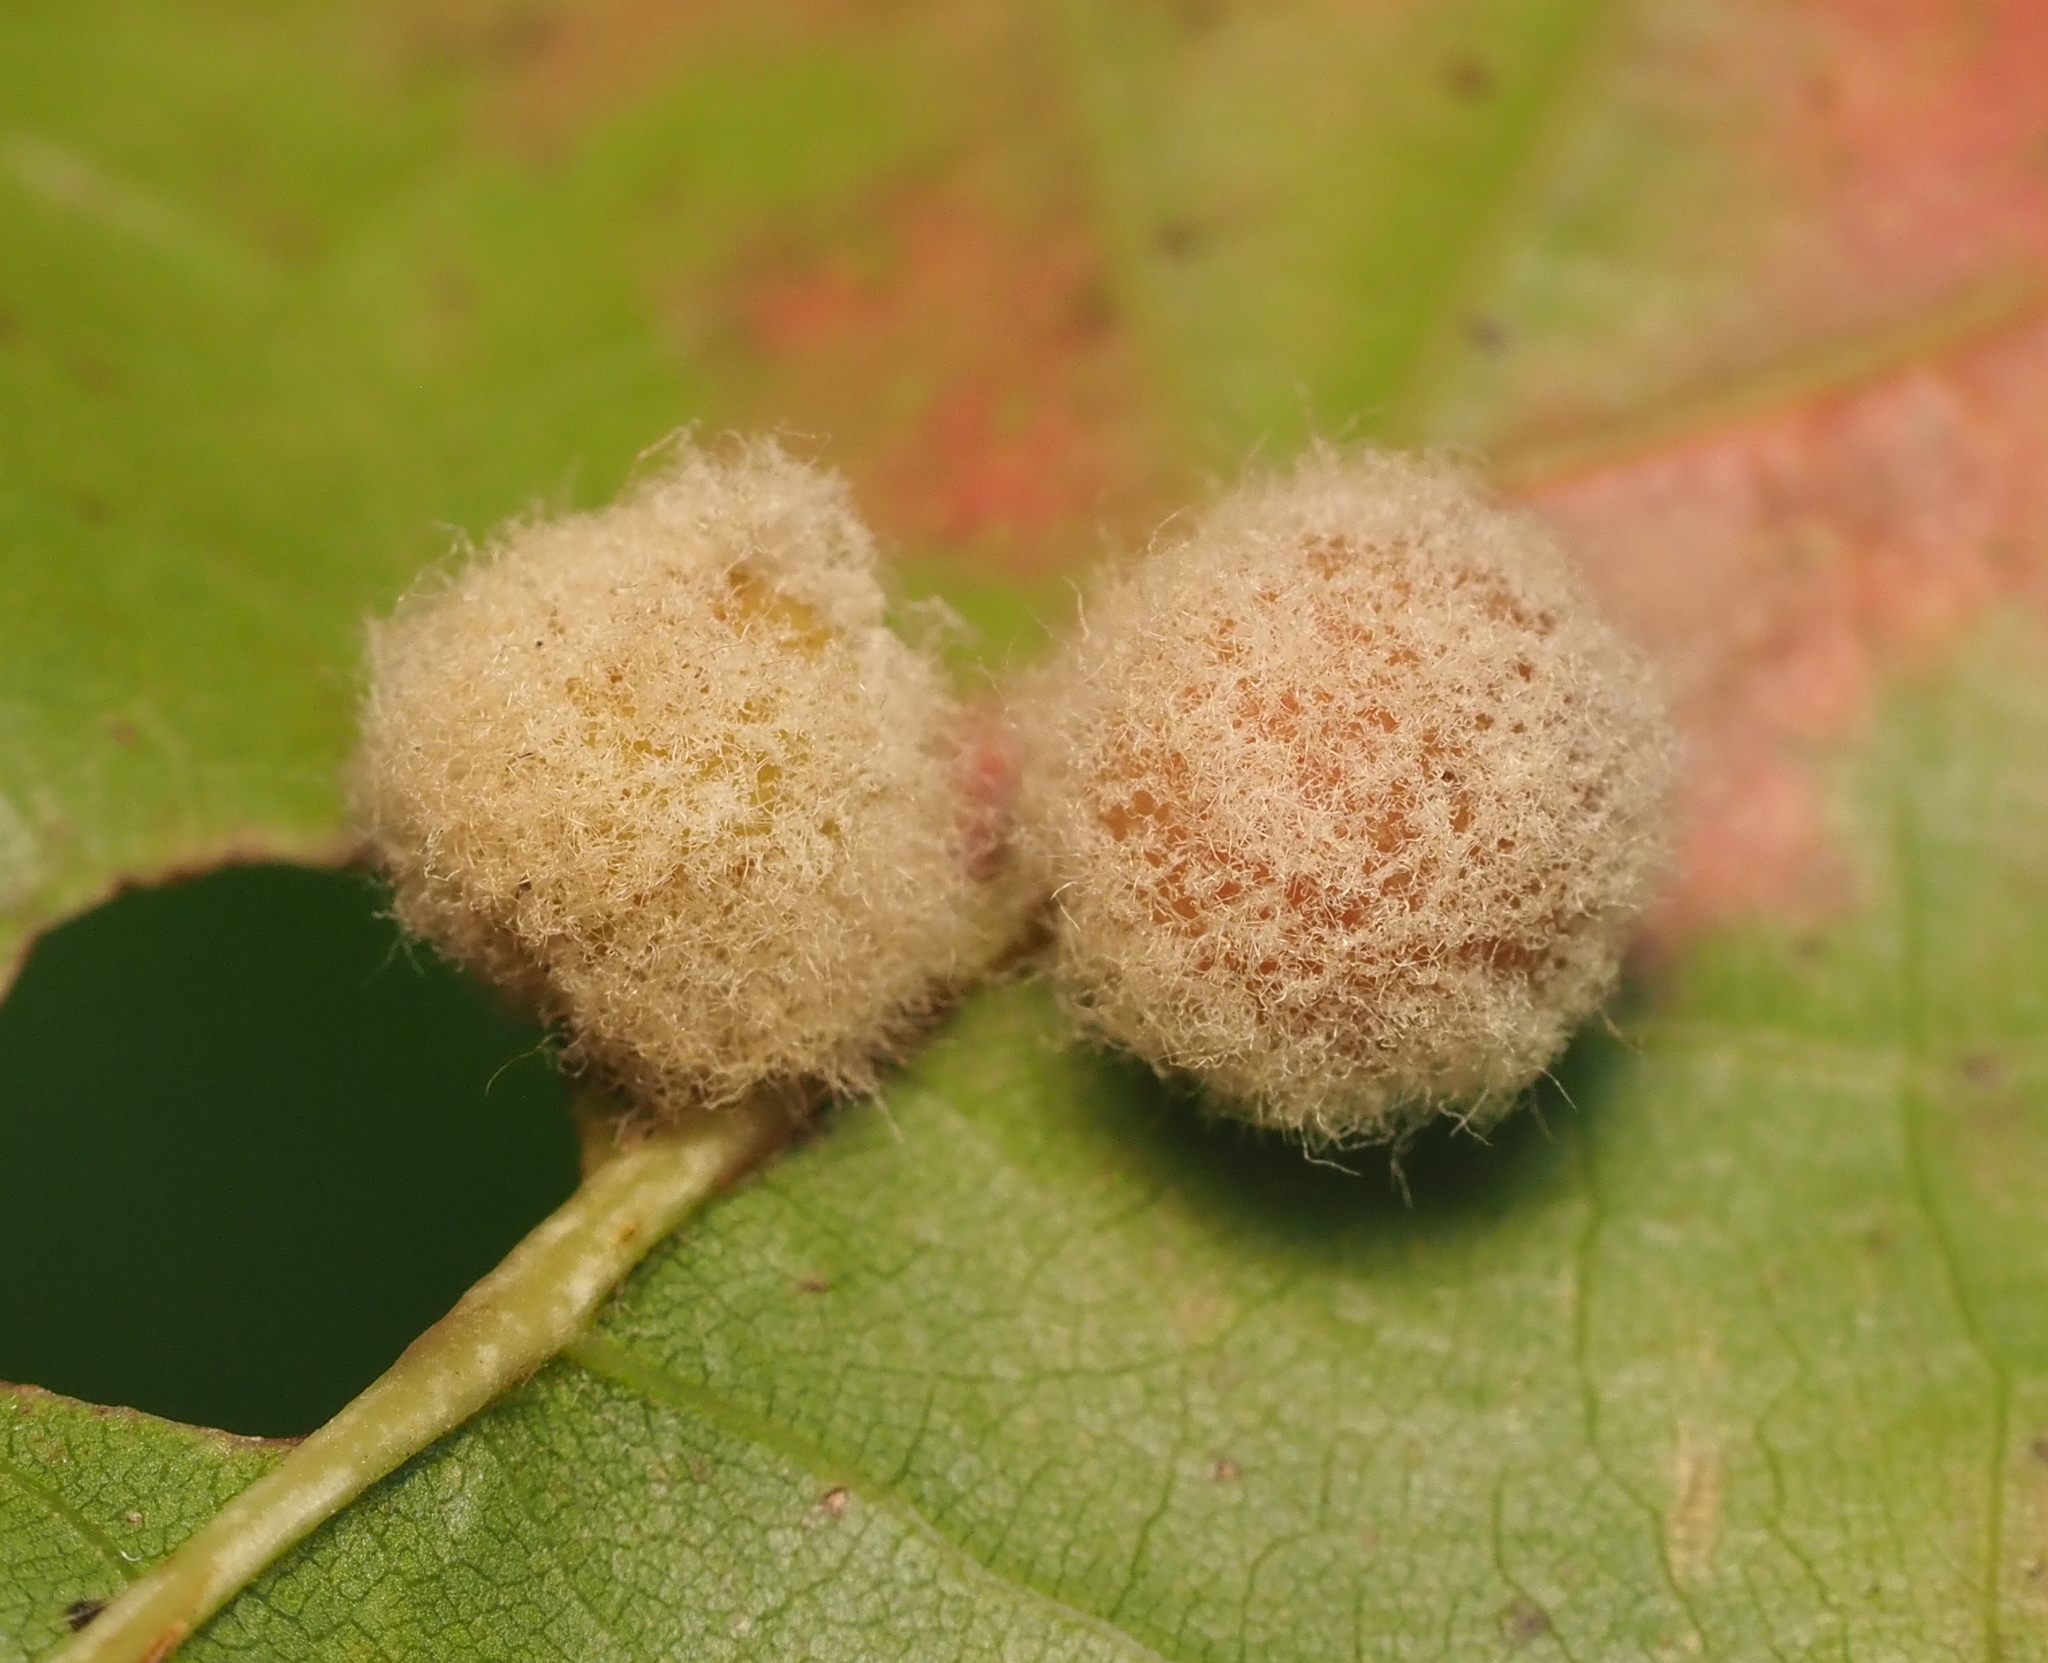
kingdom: Animalia
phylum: Arthropoda
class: Insecta
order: Hymenoptera
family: Cynipidae
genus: Callirhytis
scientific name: Callirhytis
